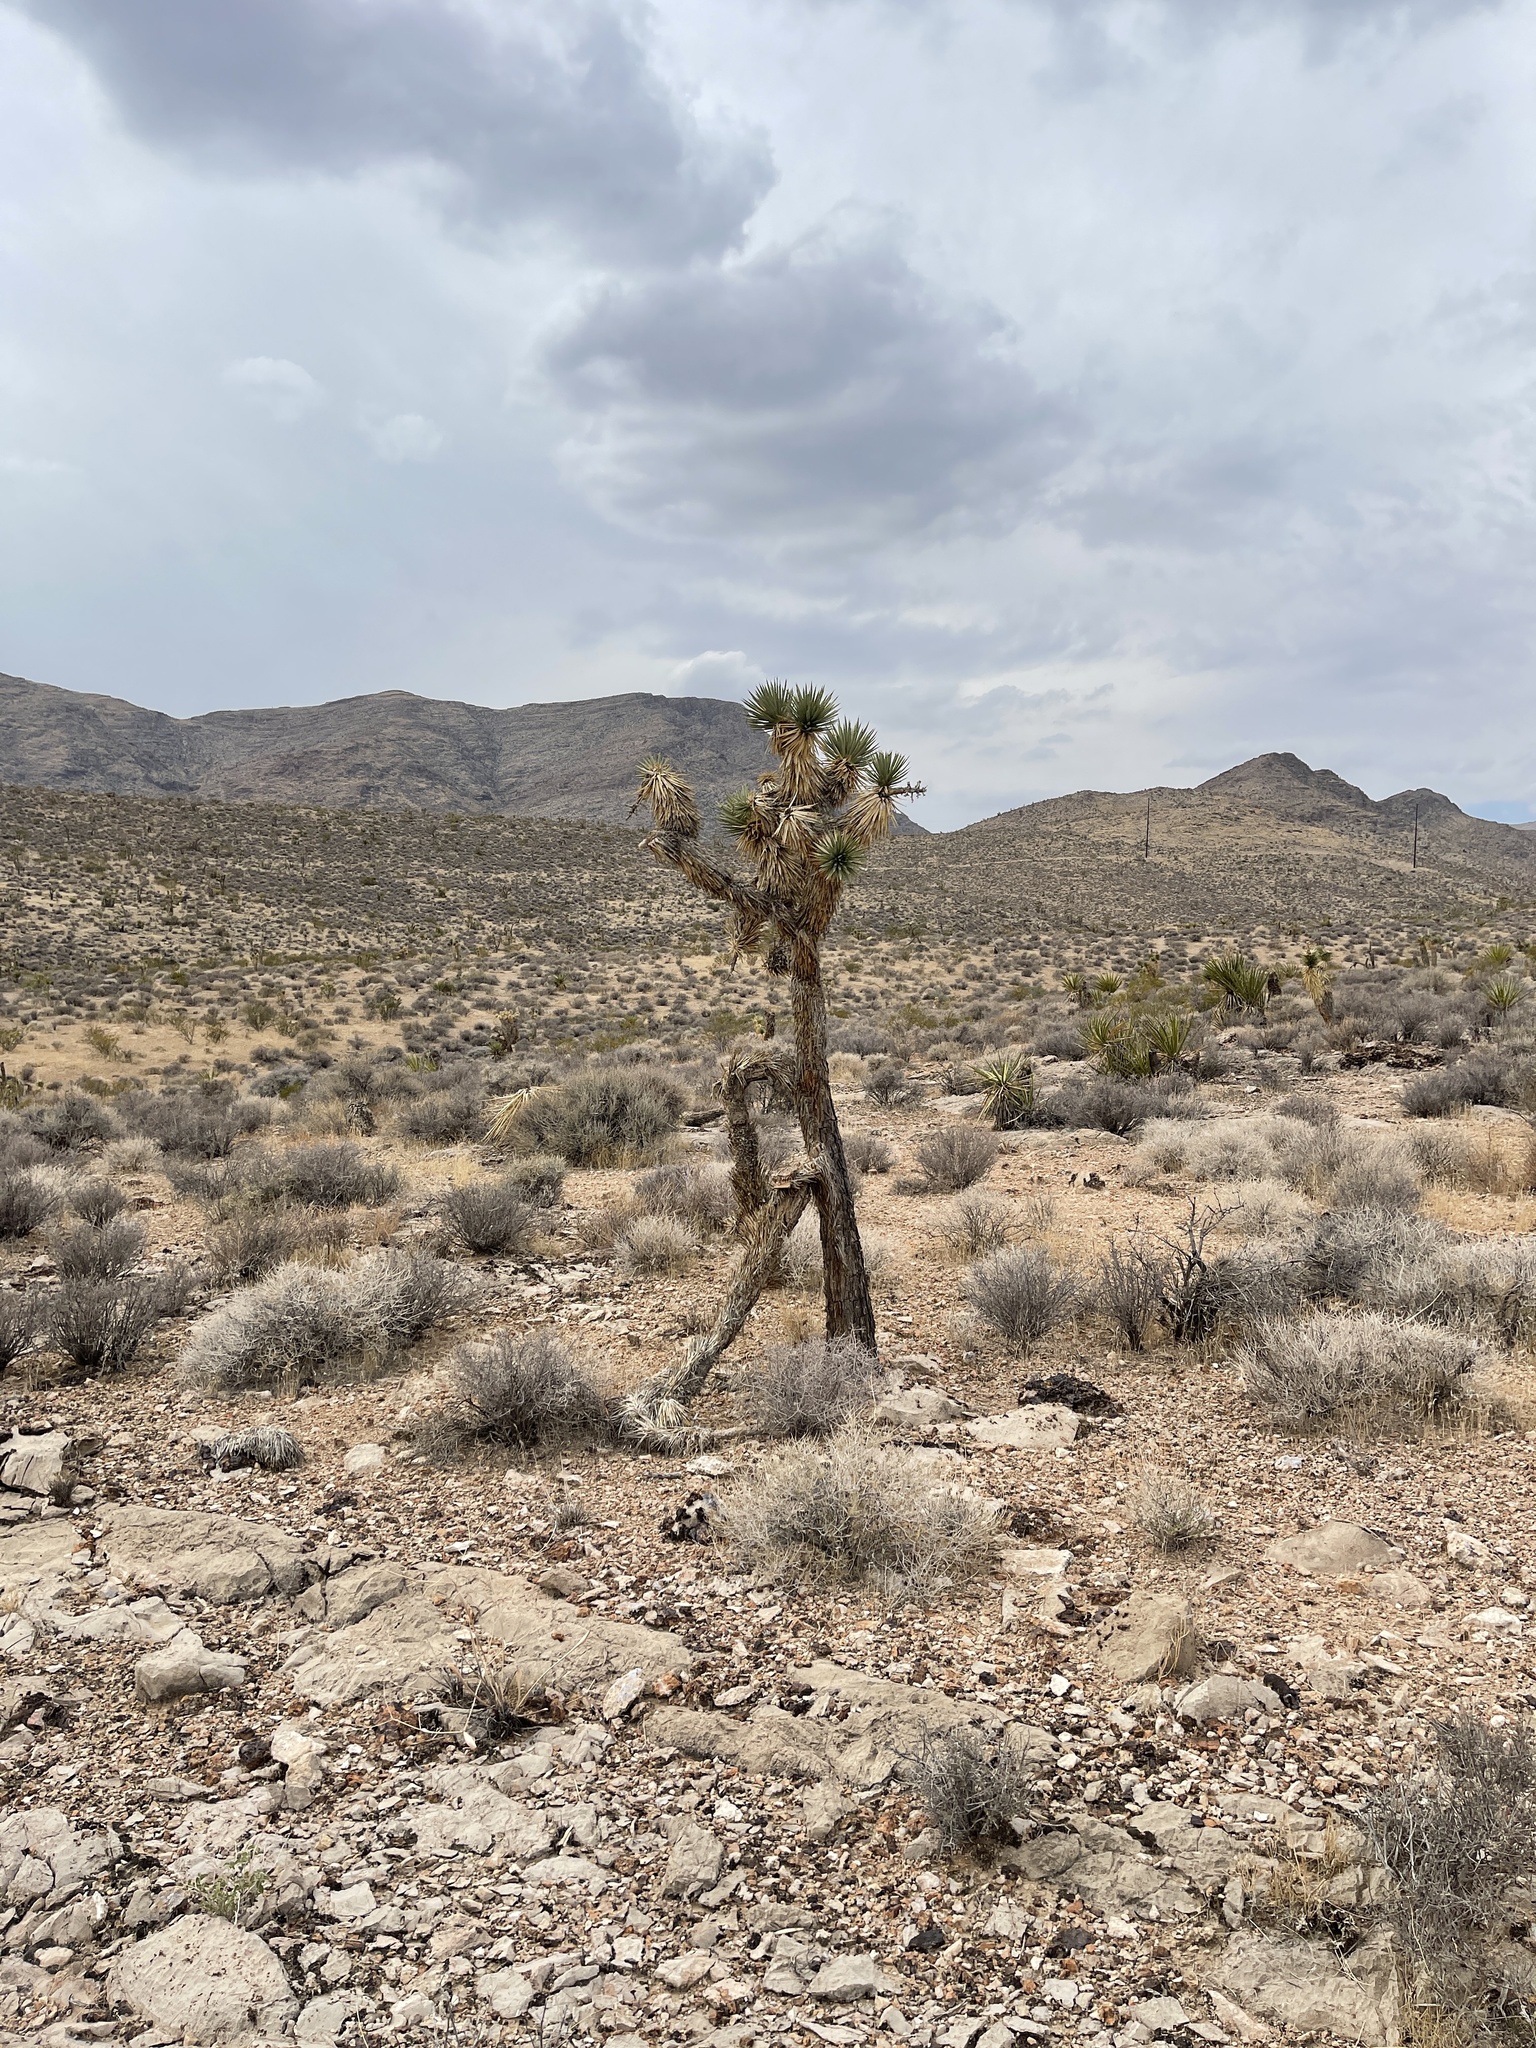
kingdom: Plantae
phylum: Tracheophyta
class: Liliopsida
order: Asparagales
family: Asparagaceae
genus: Yucca
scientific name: Yucca brevifolia
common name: Joshua tree
